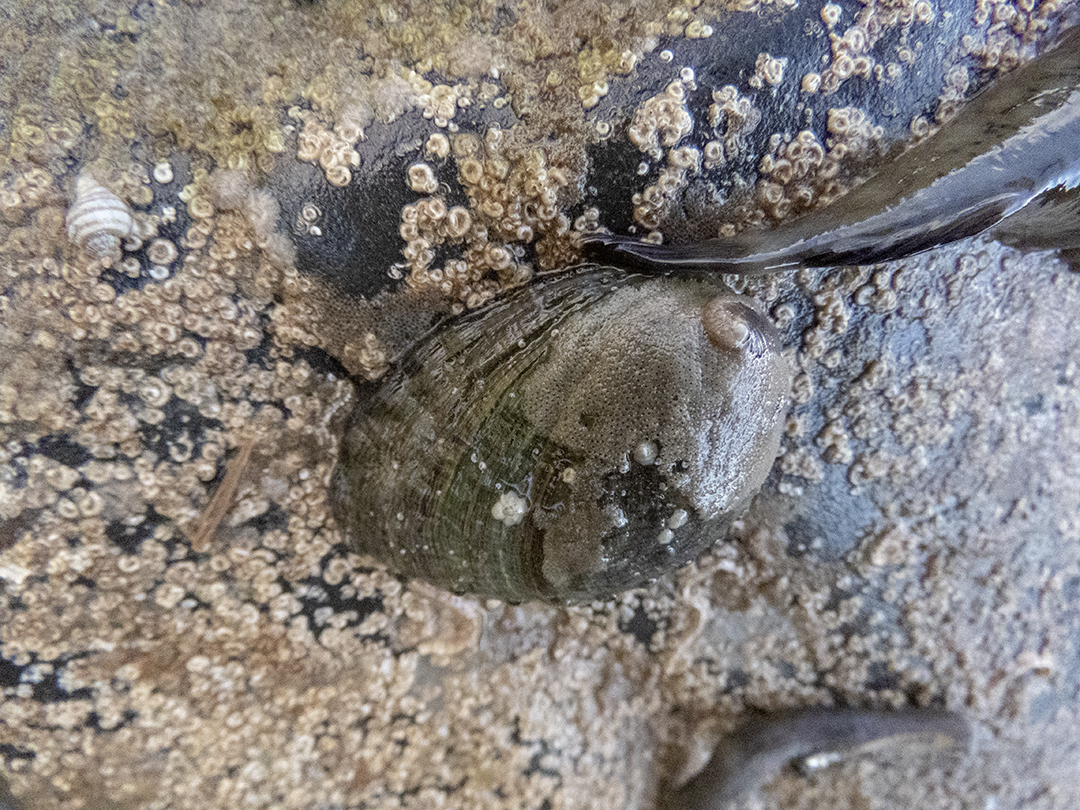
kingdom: Animalia
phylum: Mollusca
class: Gastropoda
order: Lepetellida
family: Haliotidae
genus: Haliotis
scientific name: Haliotis iris
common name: Abalone
